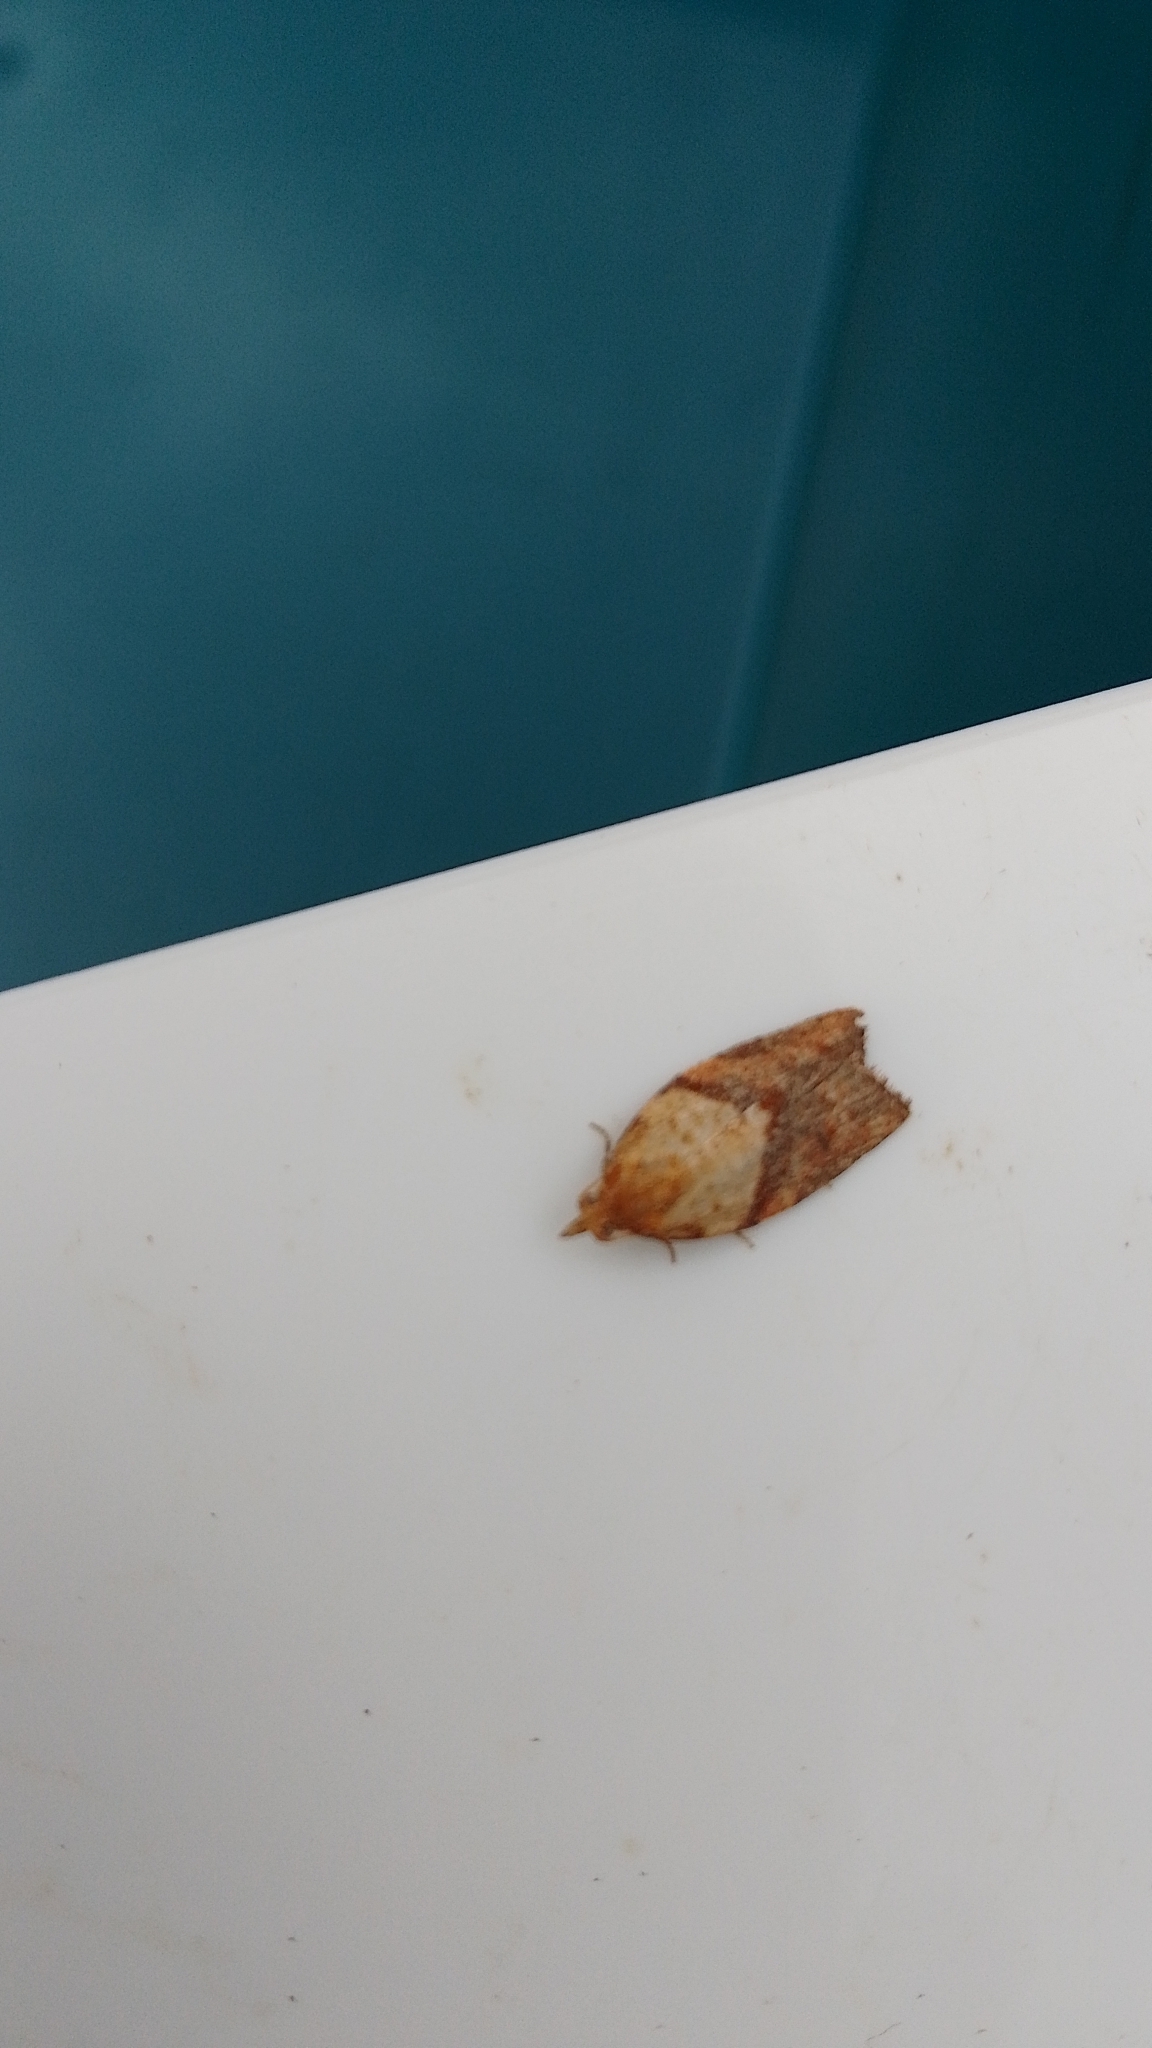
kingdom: Animalia
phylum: Arthropoda
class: Insecta
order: Lepidoptera
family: Tortricidae
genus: Epiphyas
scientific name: Epiphyas postvittana
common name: Light brown apple moth
